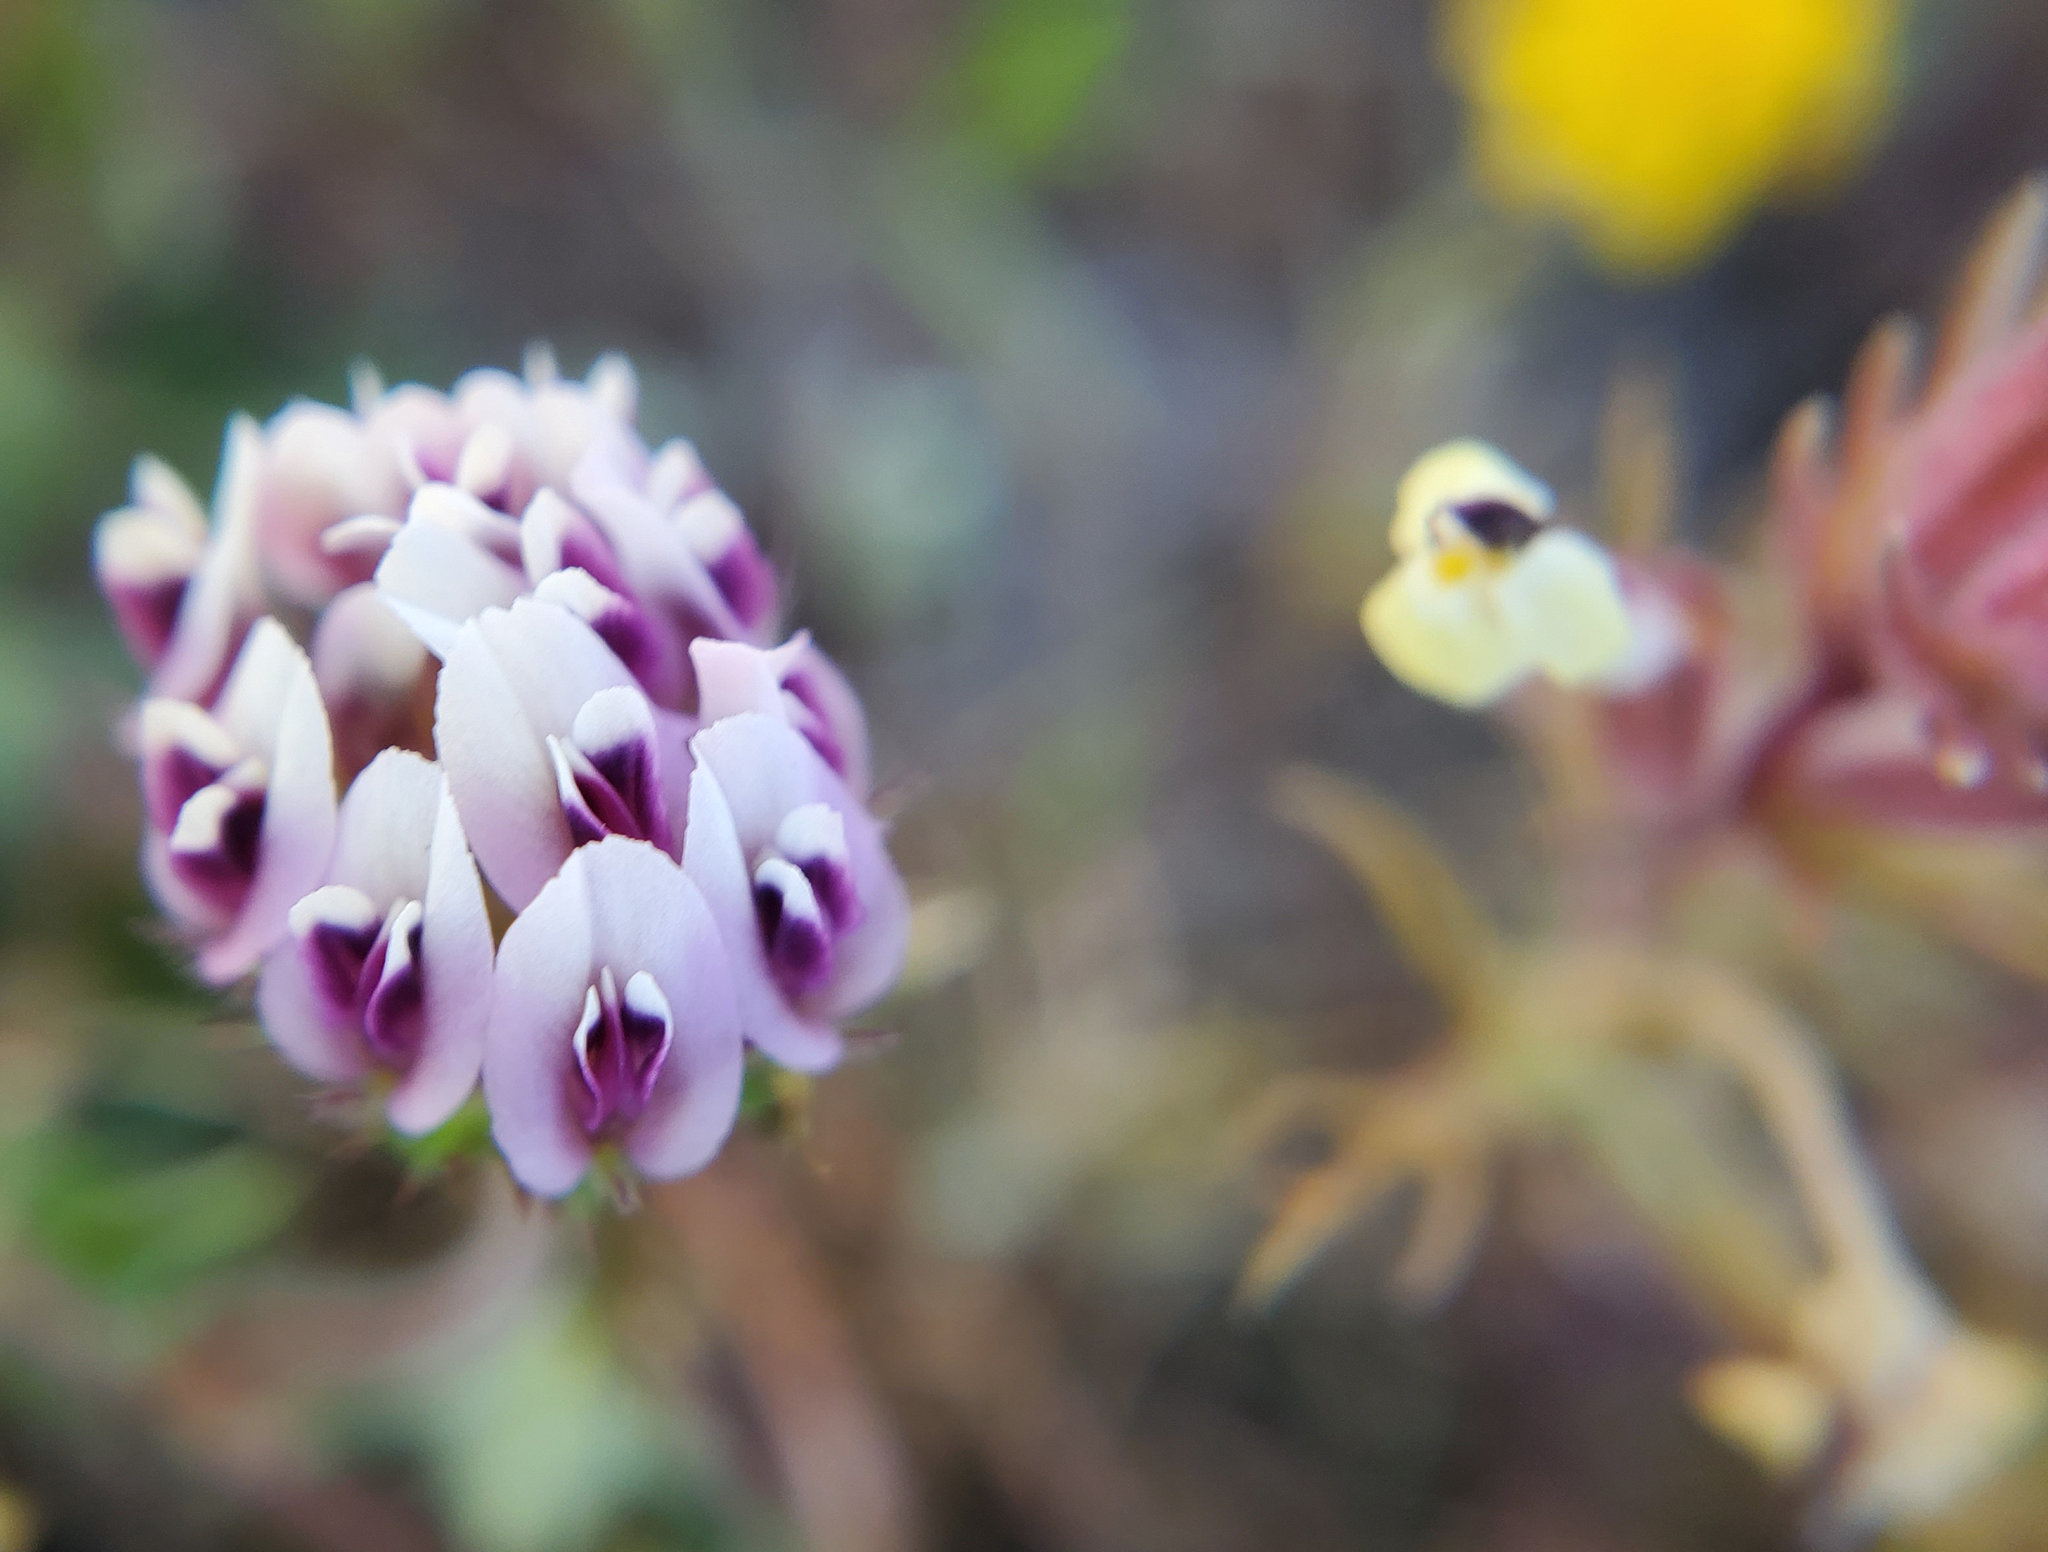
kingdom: Plantae
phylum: Tracheophyta
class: Magnoliopsida
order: Fabales
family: Fabaceae
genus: Trifolium
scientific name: Trifolium barbigerum
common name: Bearded clover
